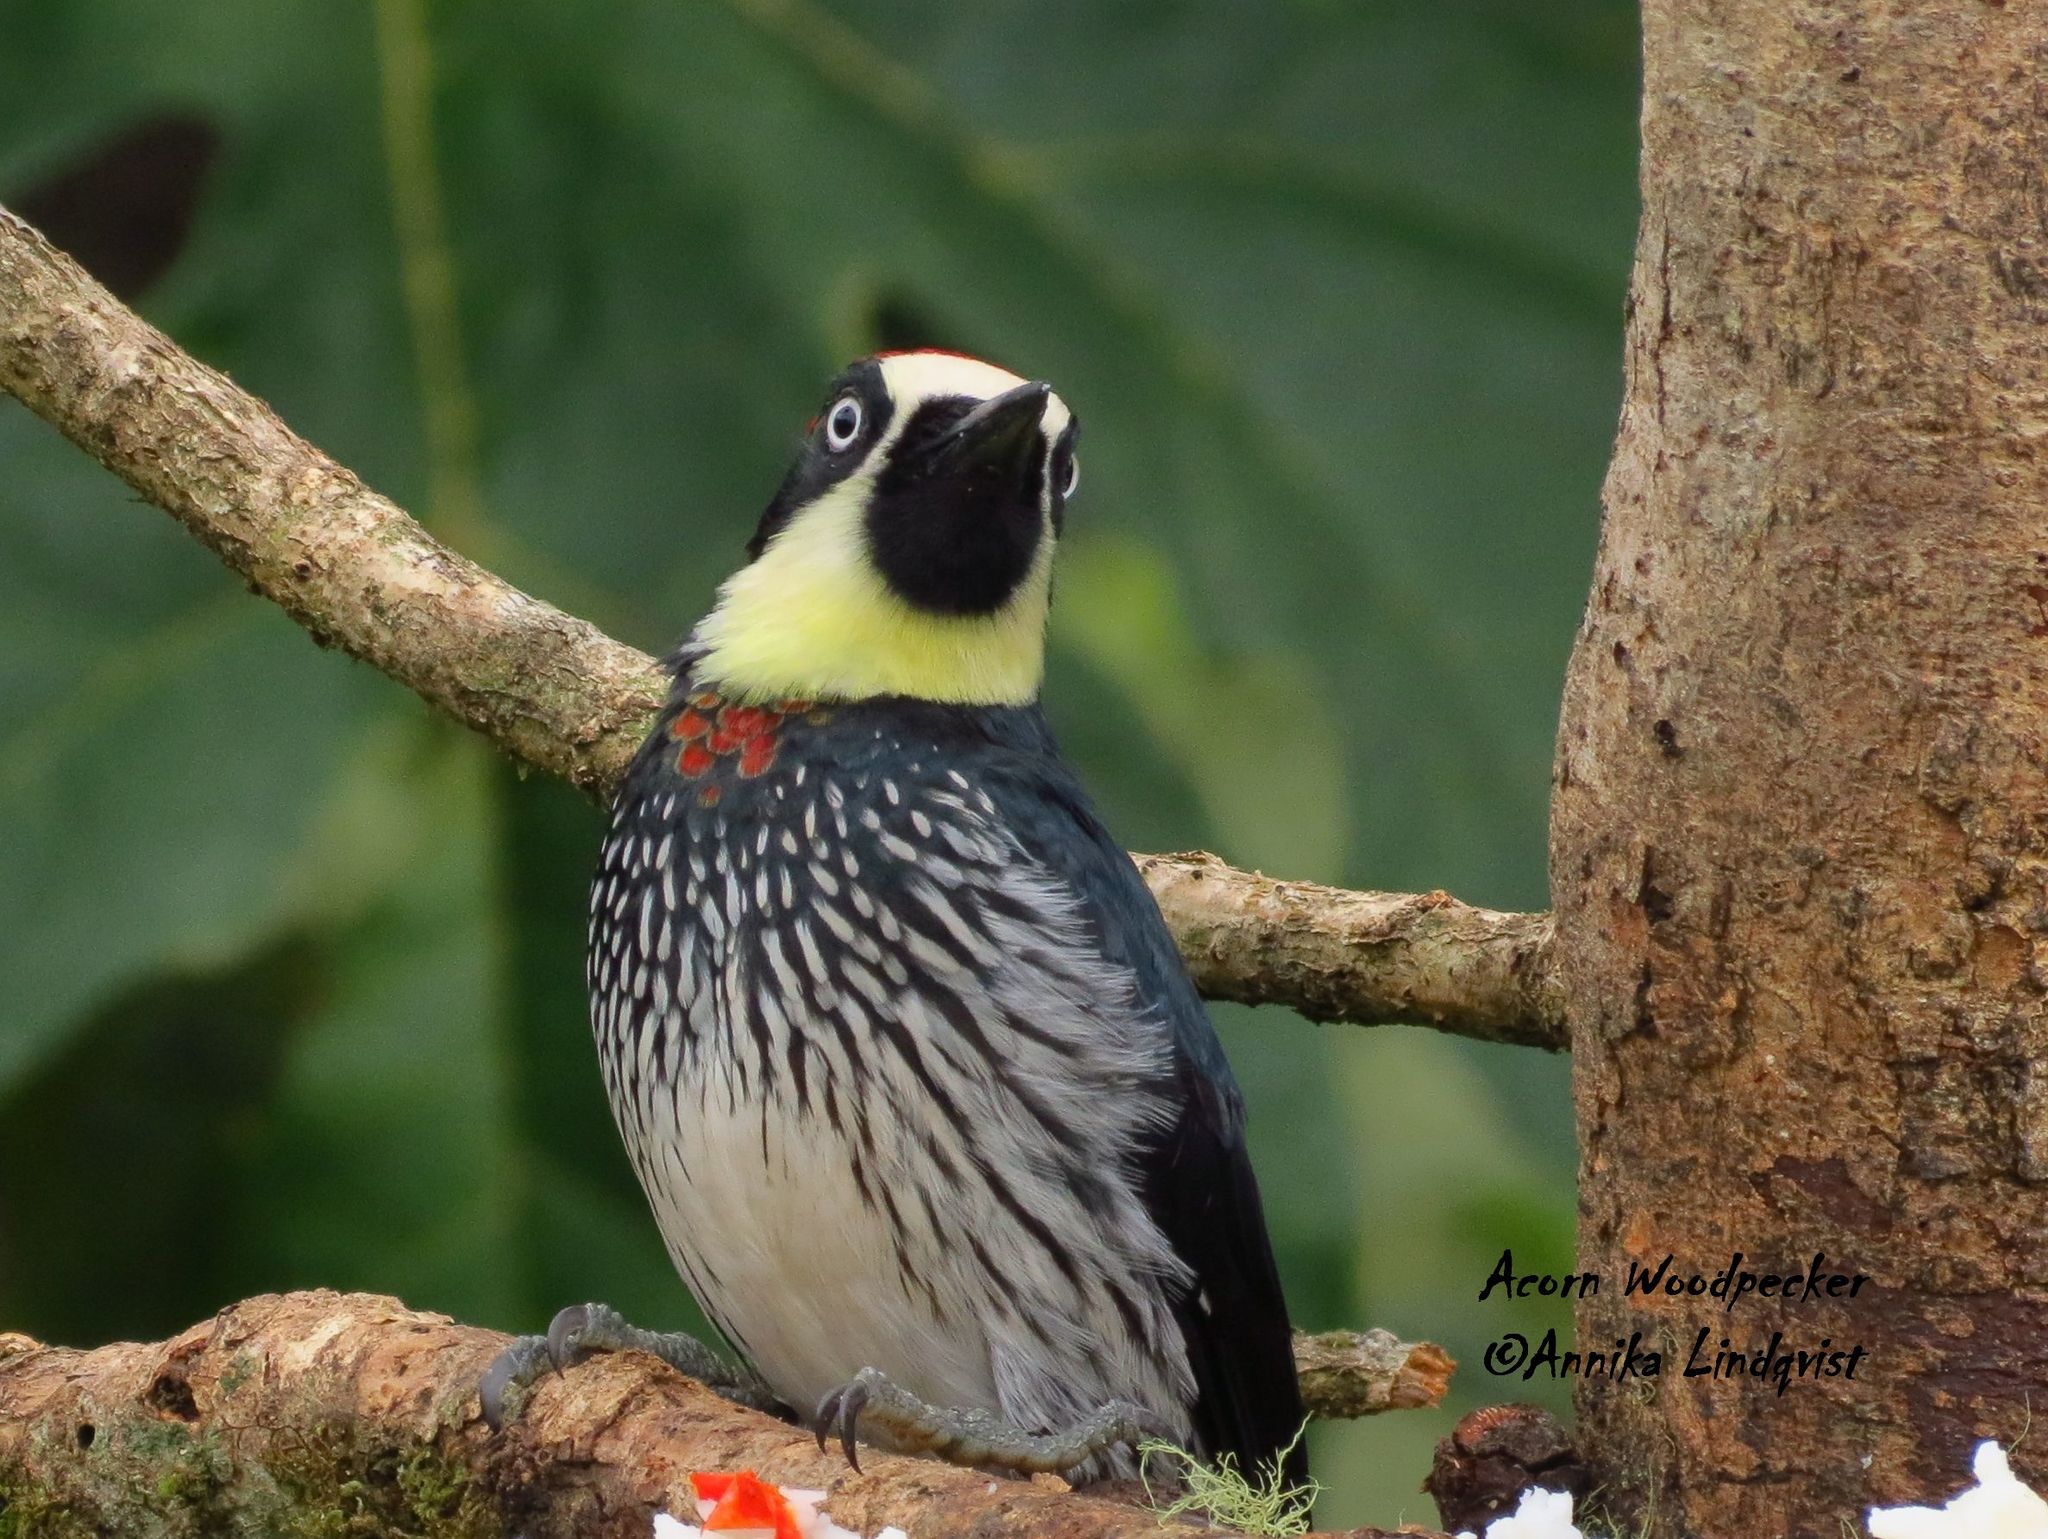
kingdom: Animalia
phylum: Chordata
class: Aves
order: Piciformes
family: Picidae
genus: Melanerpes
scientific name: Melanerpes formicivorus
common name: Acorn woodpecker
